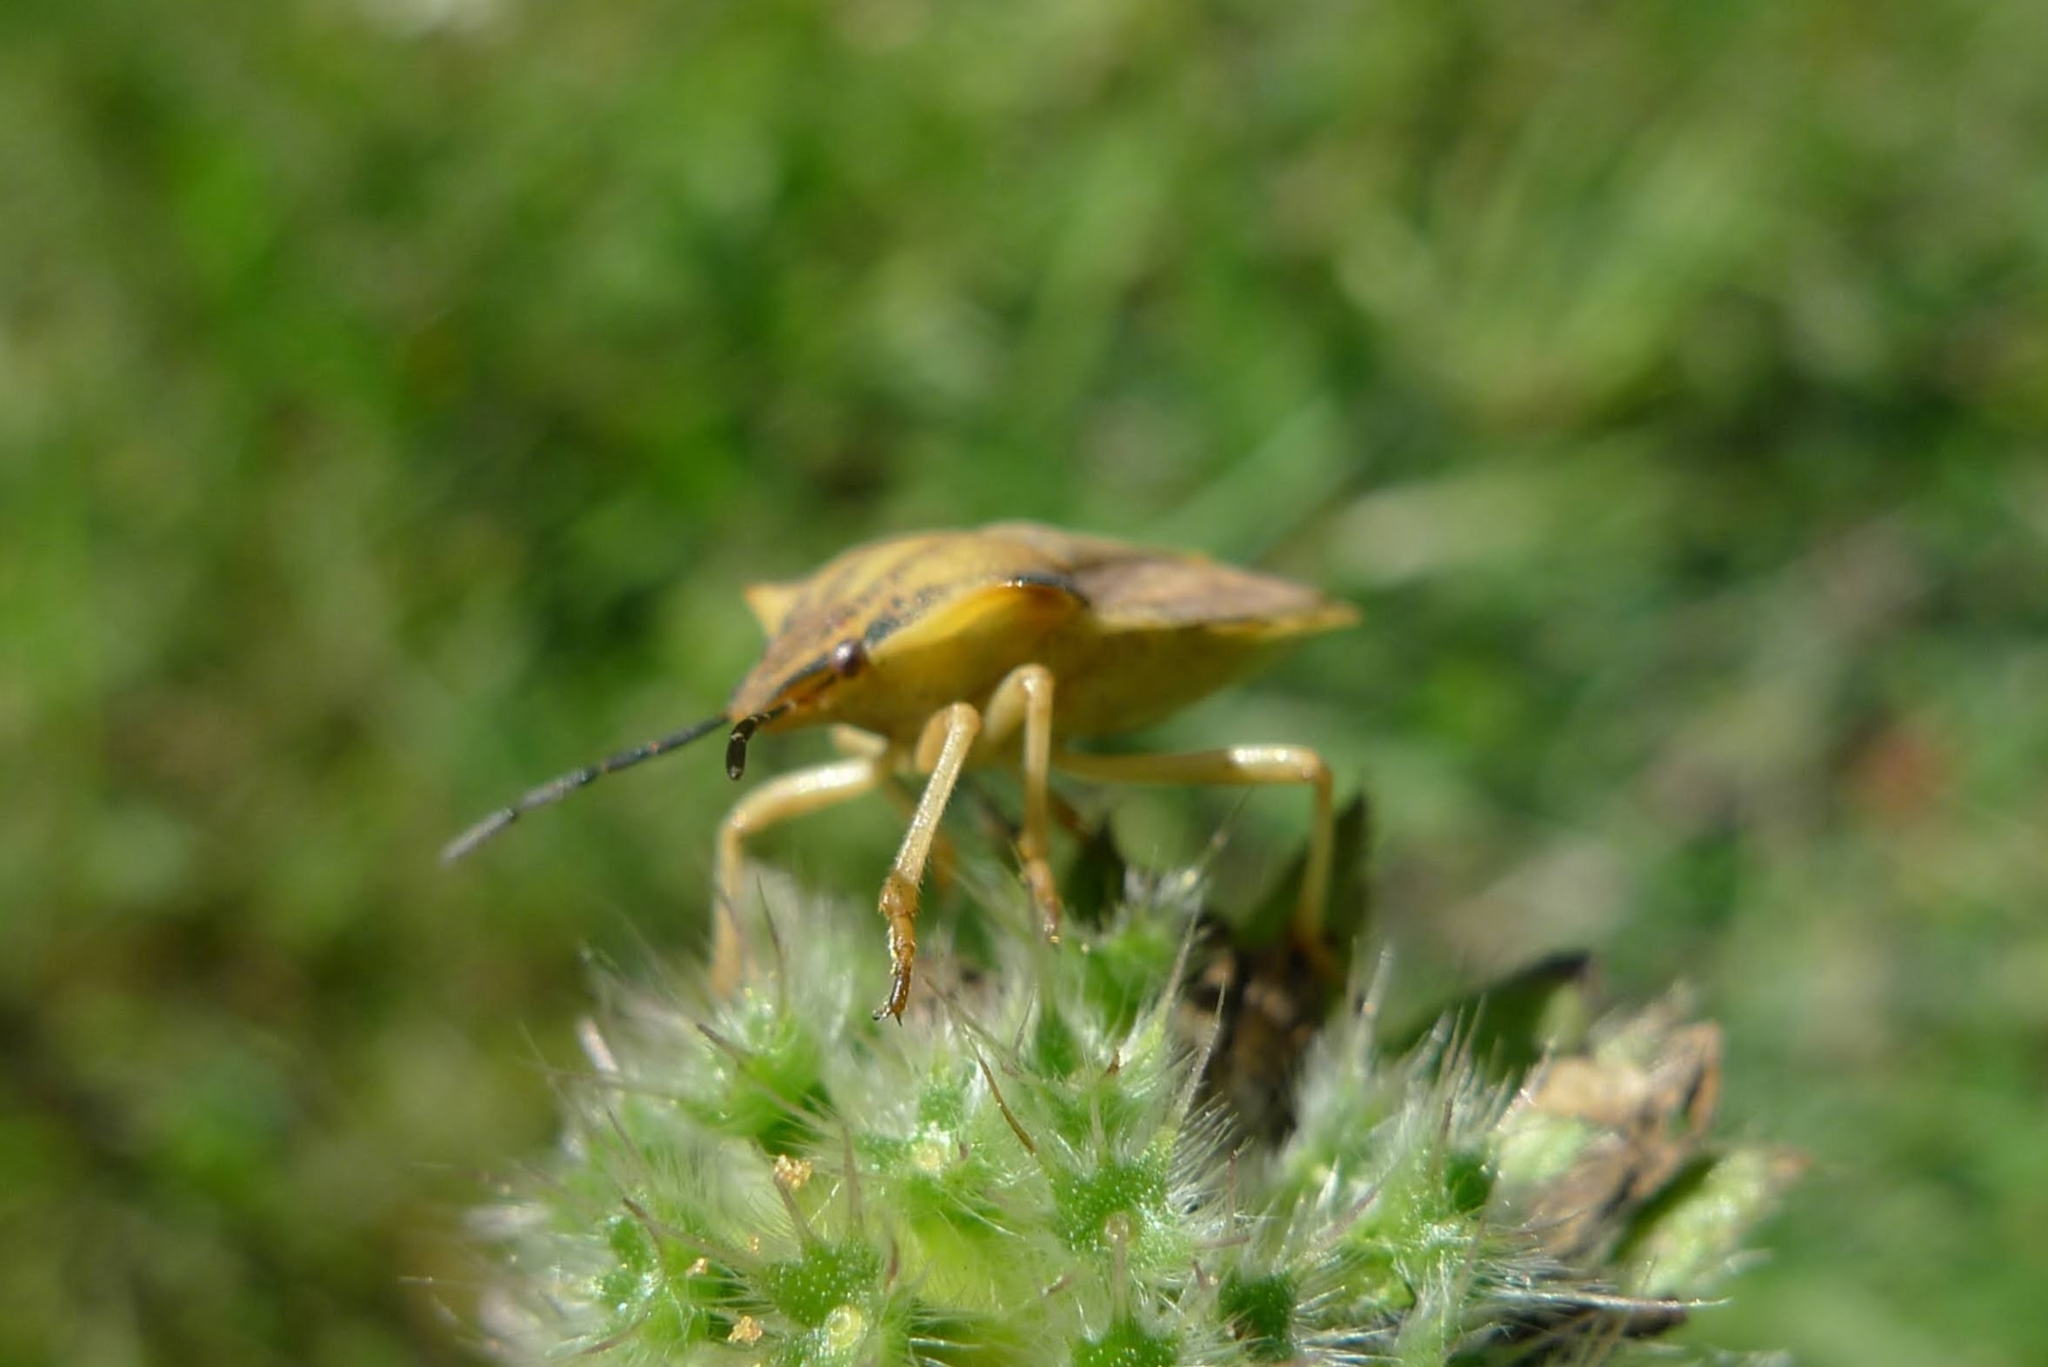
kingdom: Animalia
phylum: Arthropoda
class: Insecta
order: Hemiptera
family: Pentatomidae
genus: Carpocoris
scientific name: Carpocoris fuscispinus
